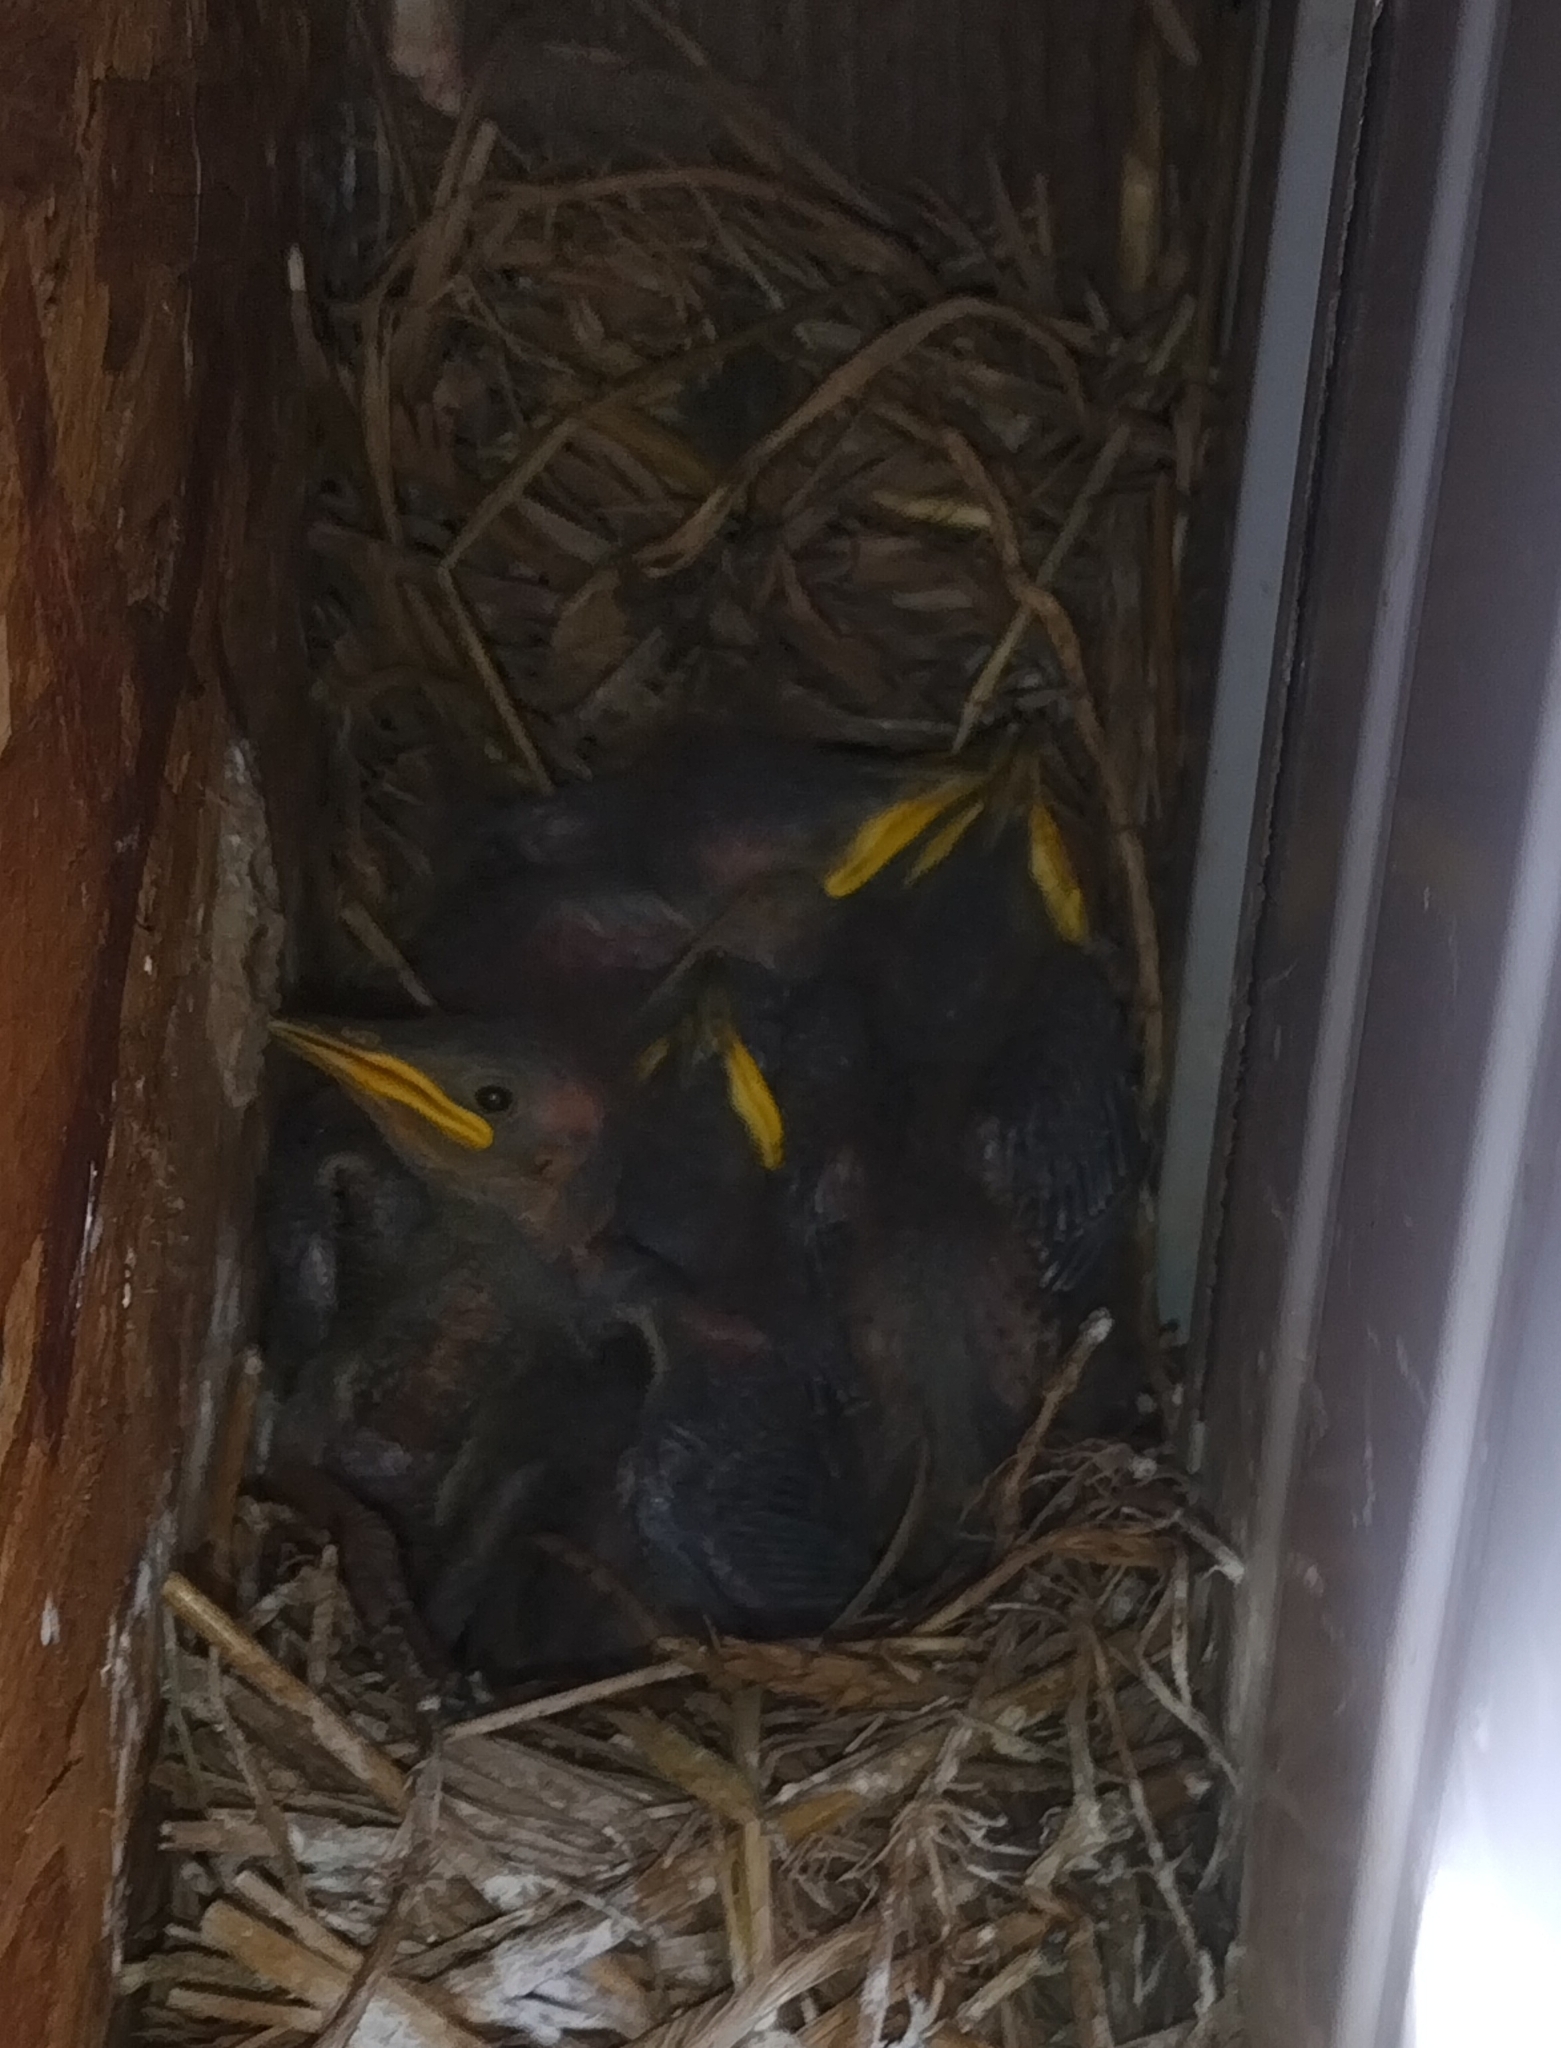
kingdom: Animalia
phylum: Chordata
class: Aves
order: Passeriformes
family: Sturnidae
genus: Sturnus
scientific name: Sturnus vulgaris
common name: Common starling
